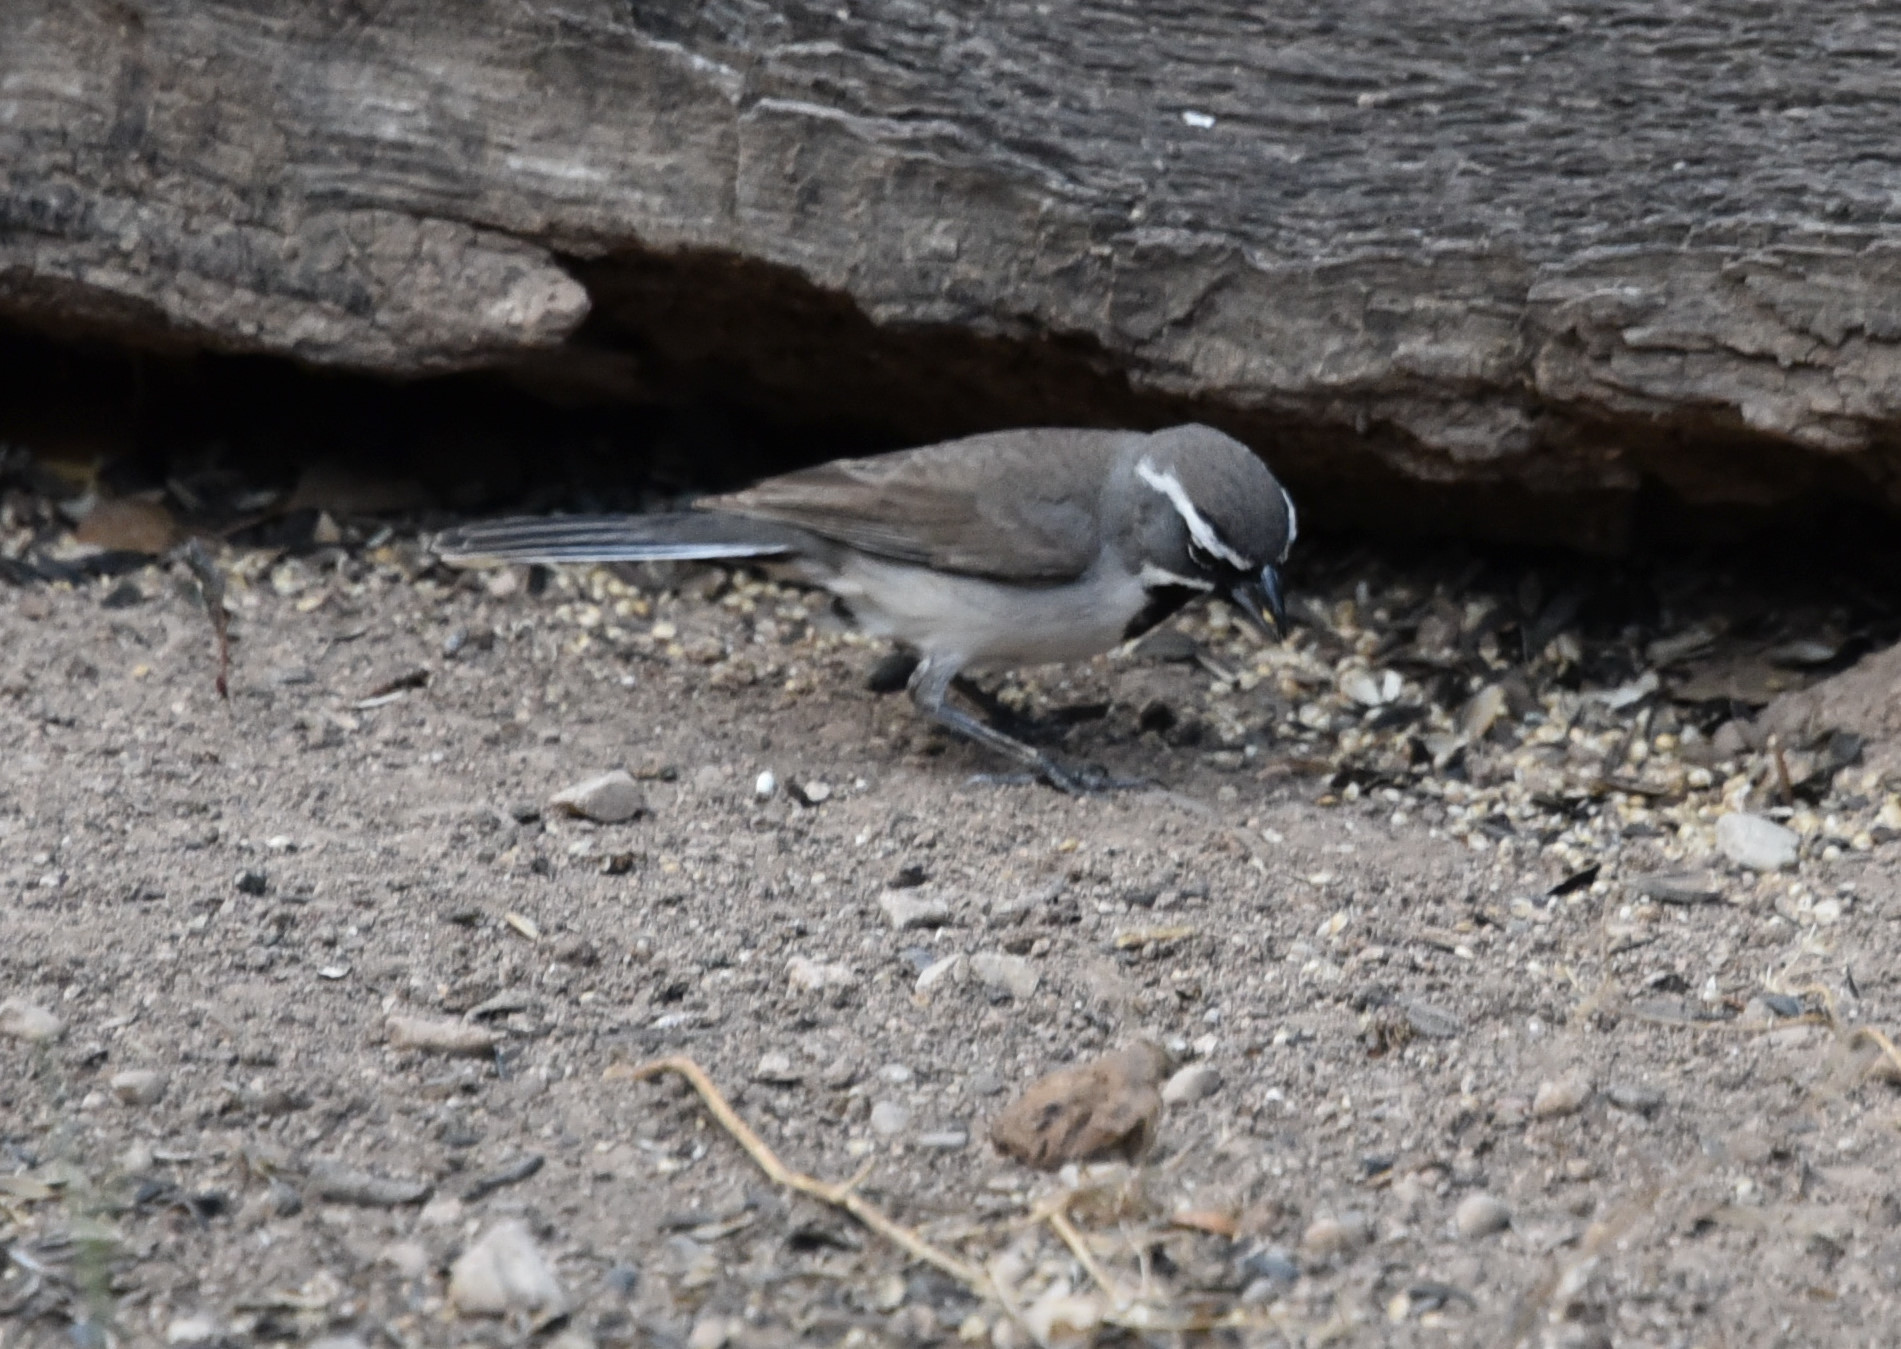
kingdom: Animalia
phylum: Chordata
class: Aves
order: Passeriformes
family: Passerellidae
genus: Amphispiza
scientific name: Amphispiza bilineata
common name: Black-throated sparrow
